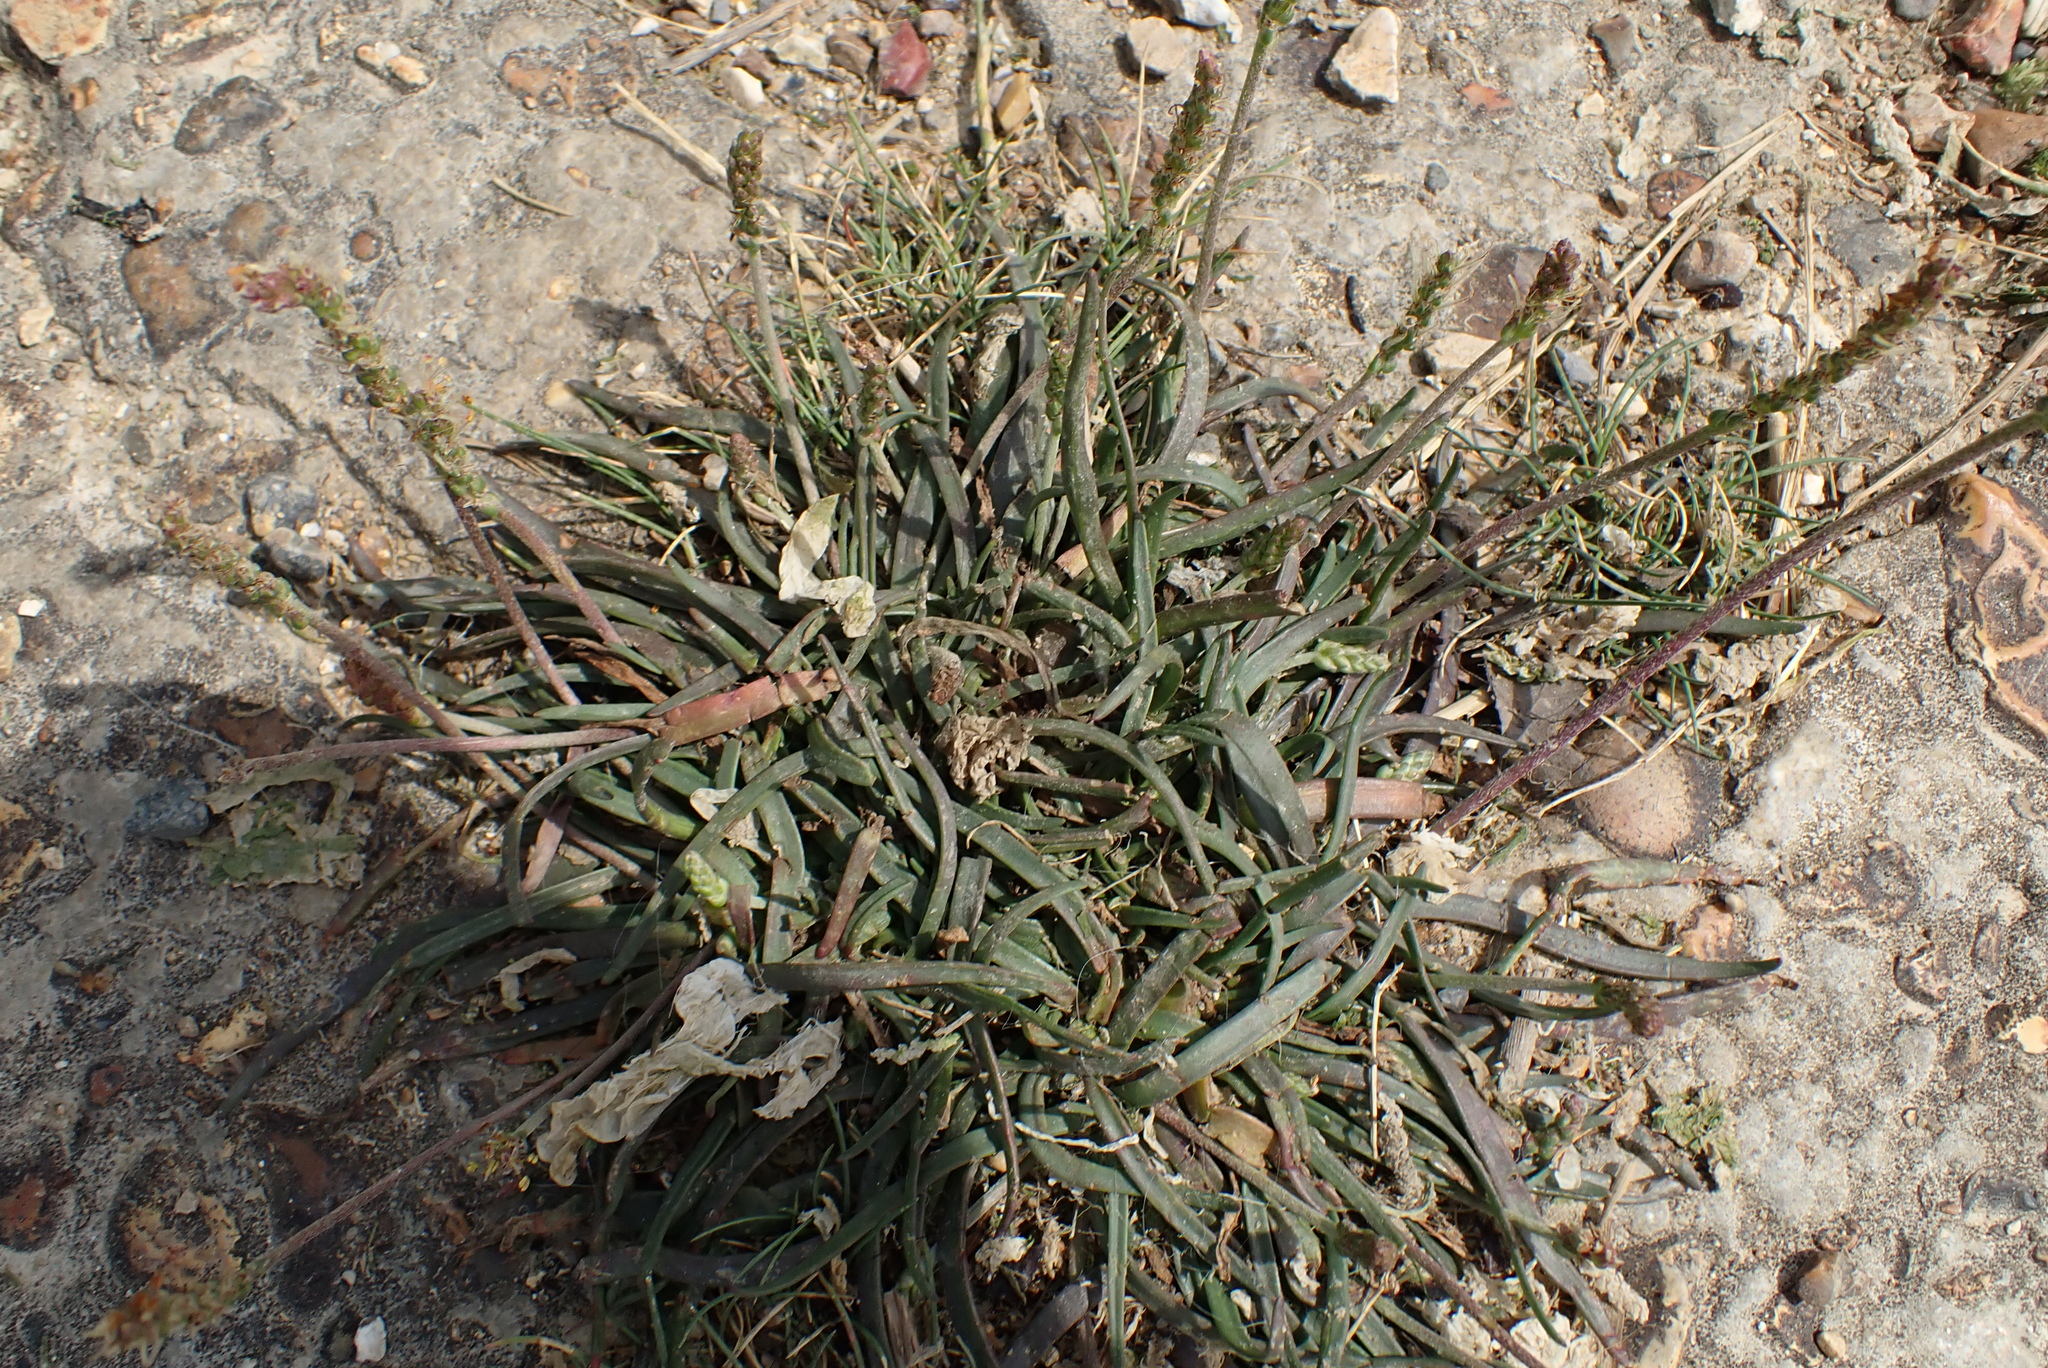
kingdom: Plantae
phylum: Tracheophyta
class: Magnoliopsida
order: Lamiales
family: Plantaginaceae
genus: Plantago
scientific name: Plantago maritima
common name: Sea plantain
